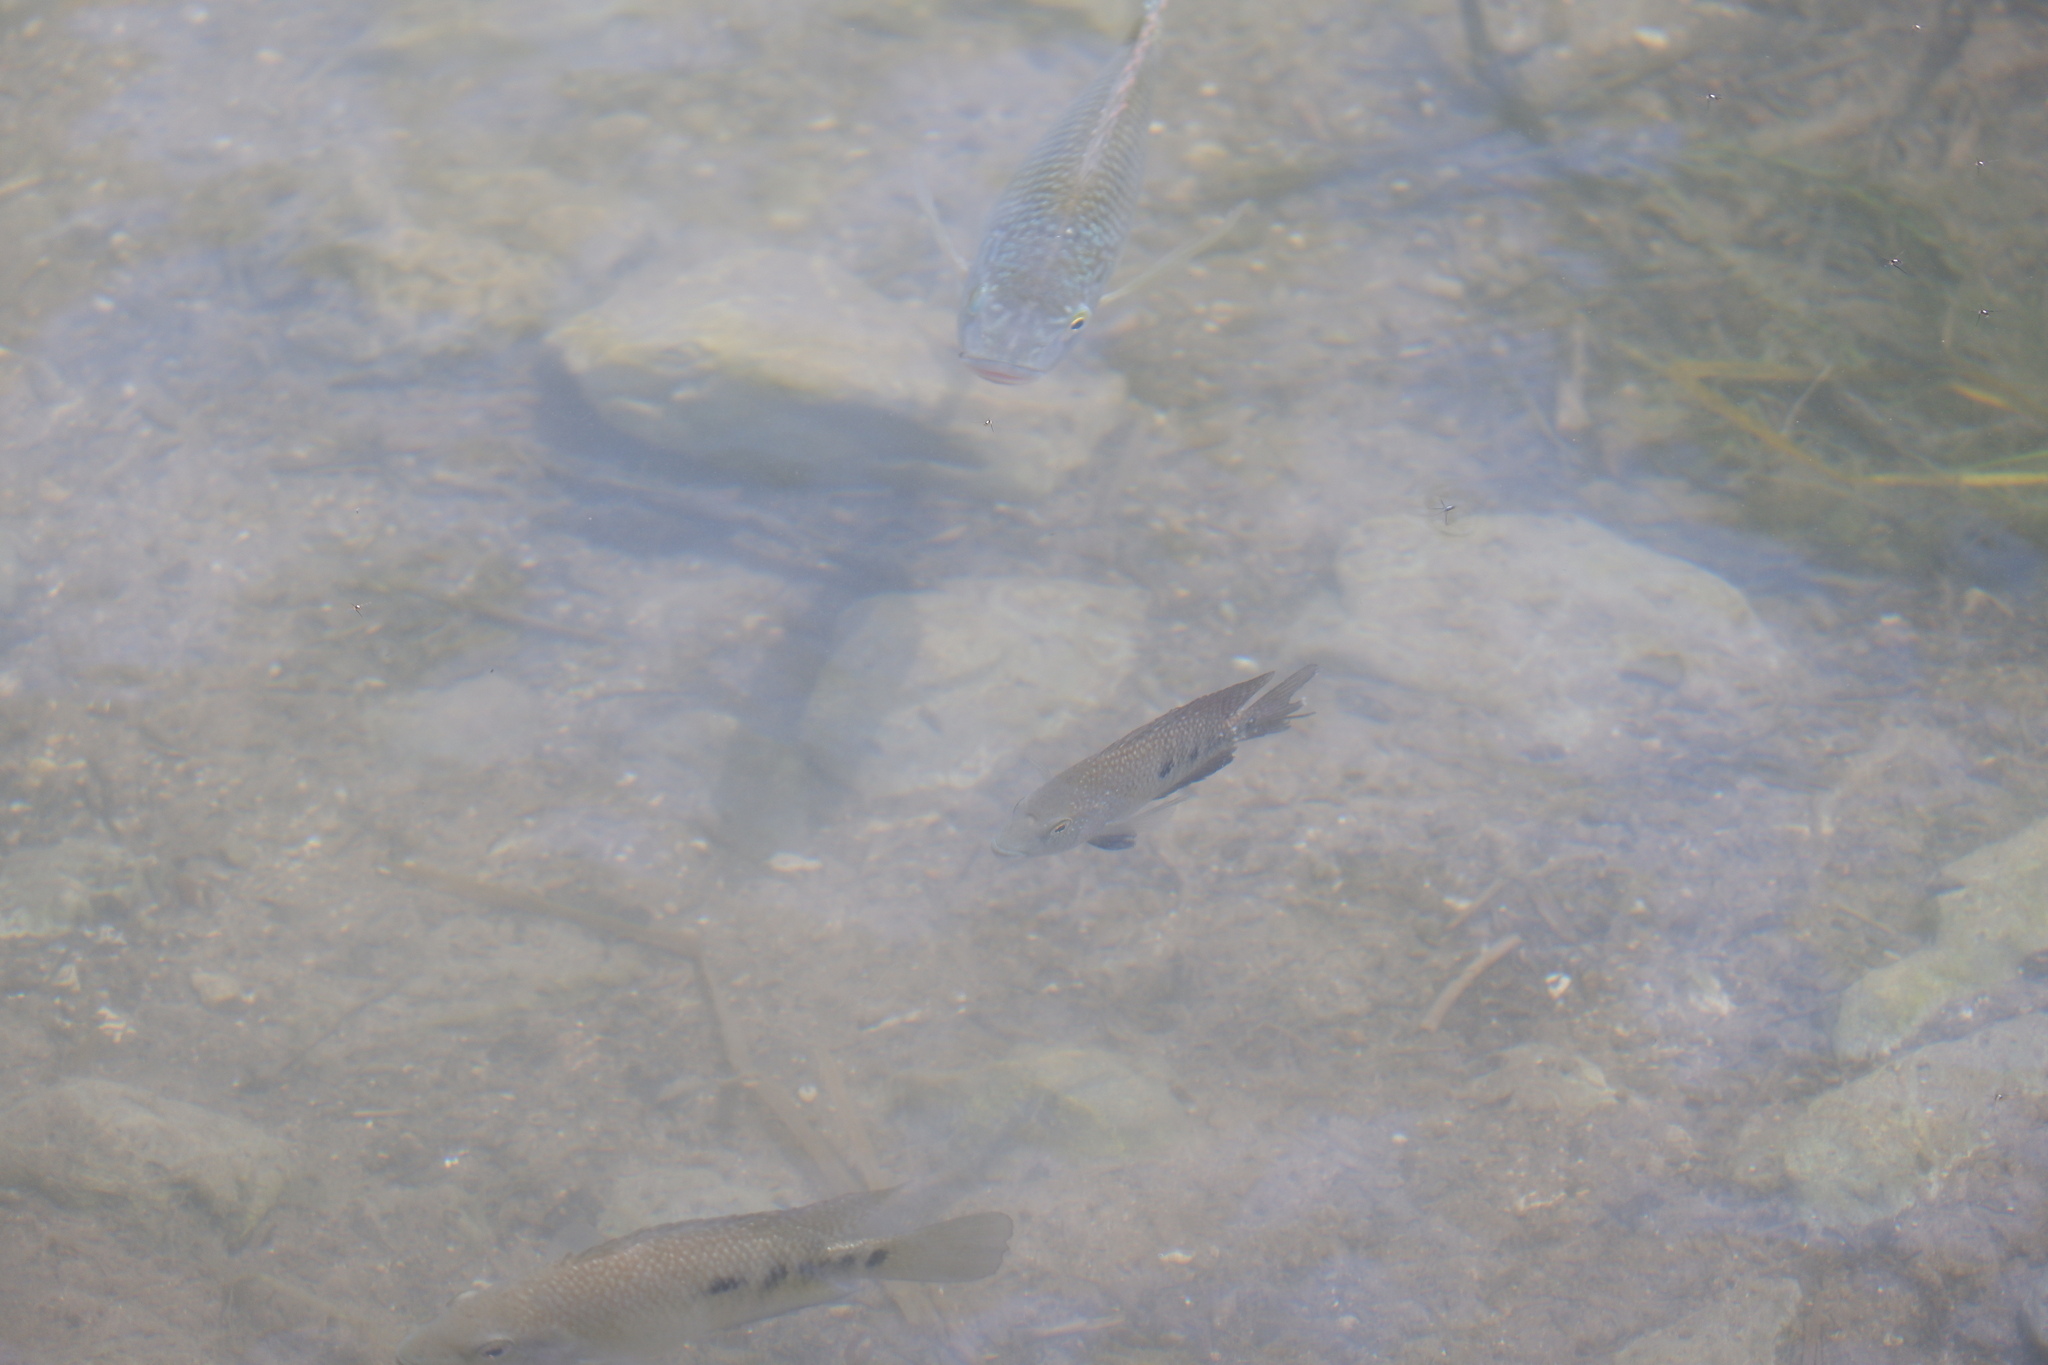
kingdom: Animalia
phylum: Chordata
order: Perciformes
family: Cichlidae
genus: Herichthys
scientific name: Herichthys cyanoguttatus
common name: Rio grande cichlid
